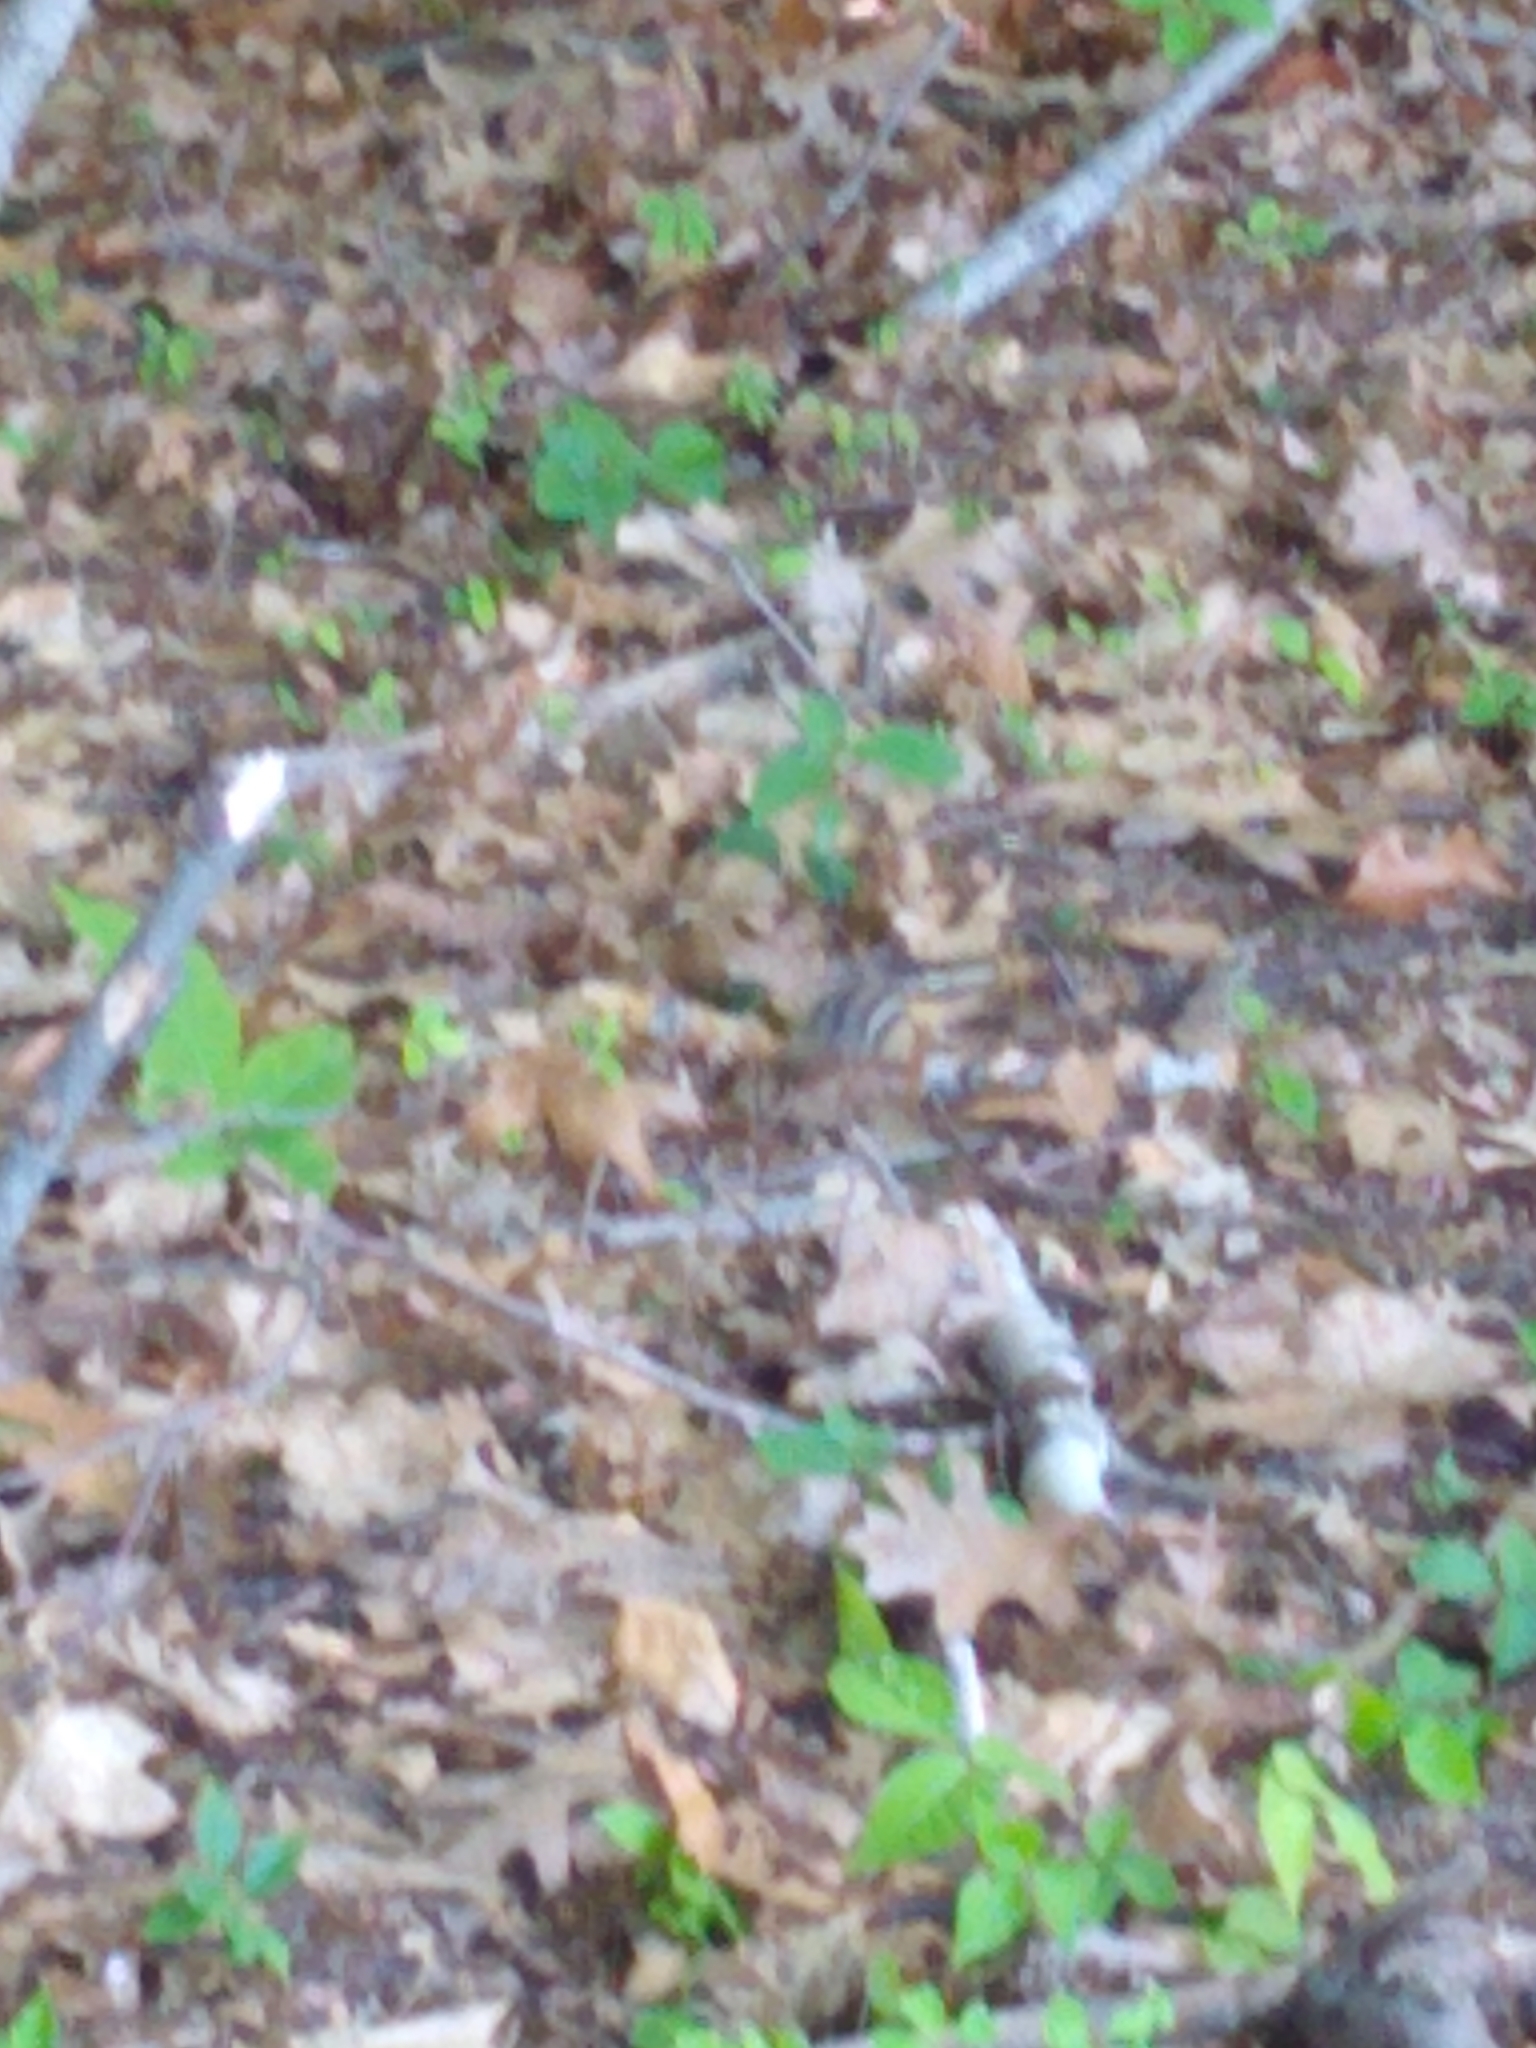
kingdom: Animalia
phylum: Chordata
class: Mammalia
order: Rodentia
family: Sciuridae
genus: Tamias
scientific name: Tamias striatus
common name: Eastern chipmunk
